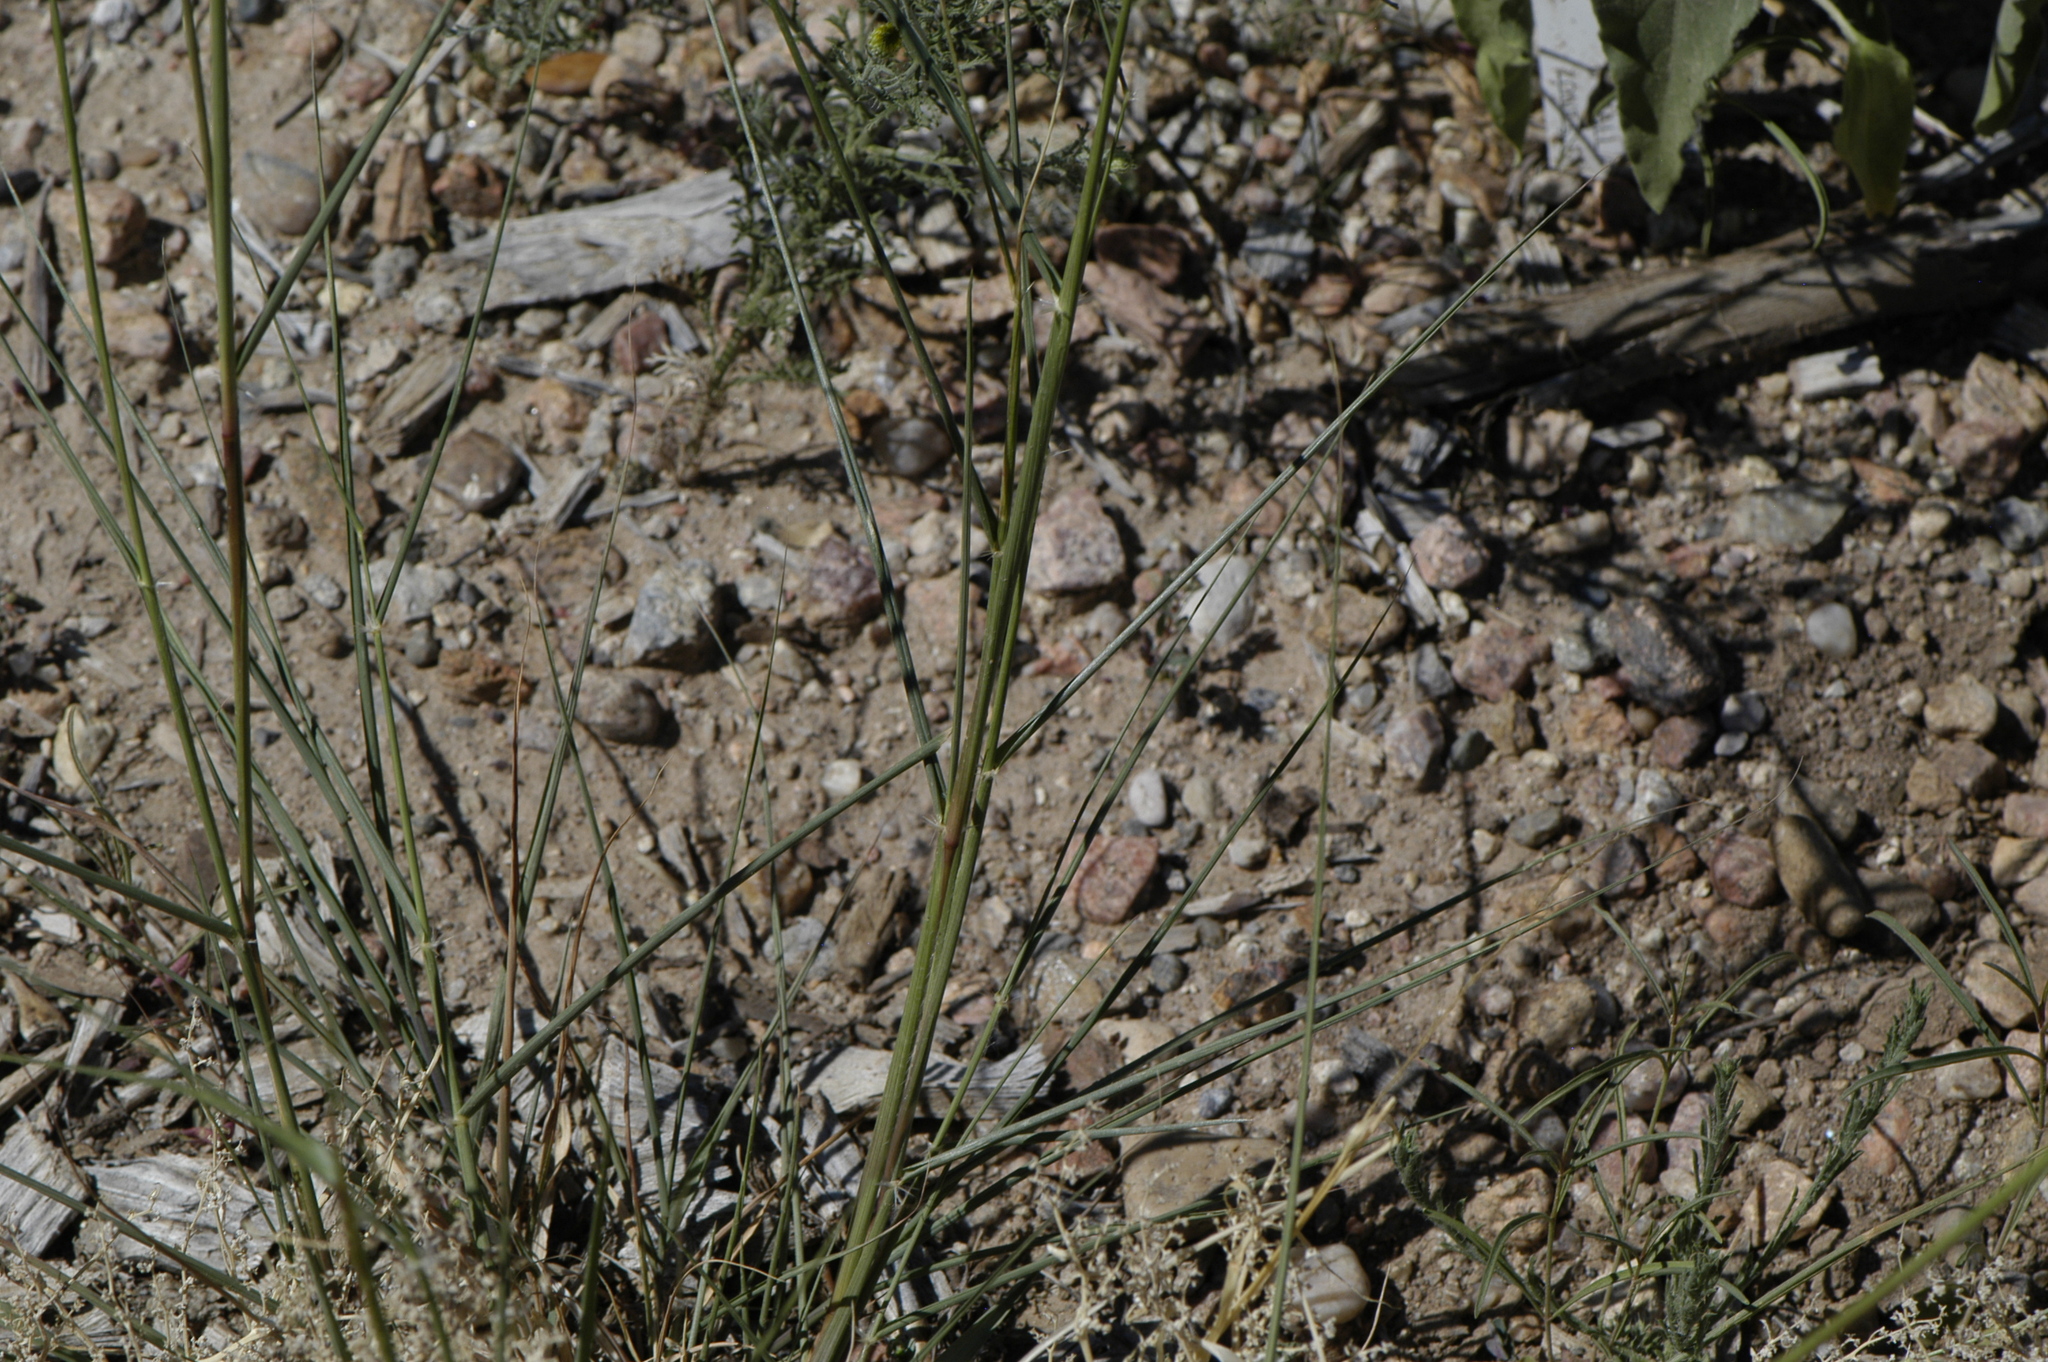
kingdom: Plantae
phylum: Tracheophyta
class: Liliopsida
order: Poales
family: Poaceae
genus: Sporobolus
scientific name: Sporobolus cryptandrus
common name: Sand dropseed
